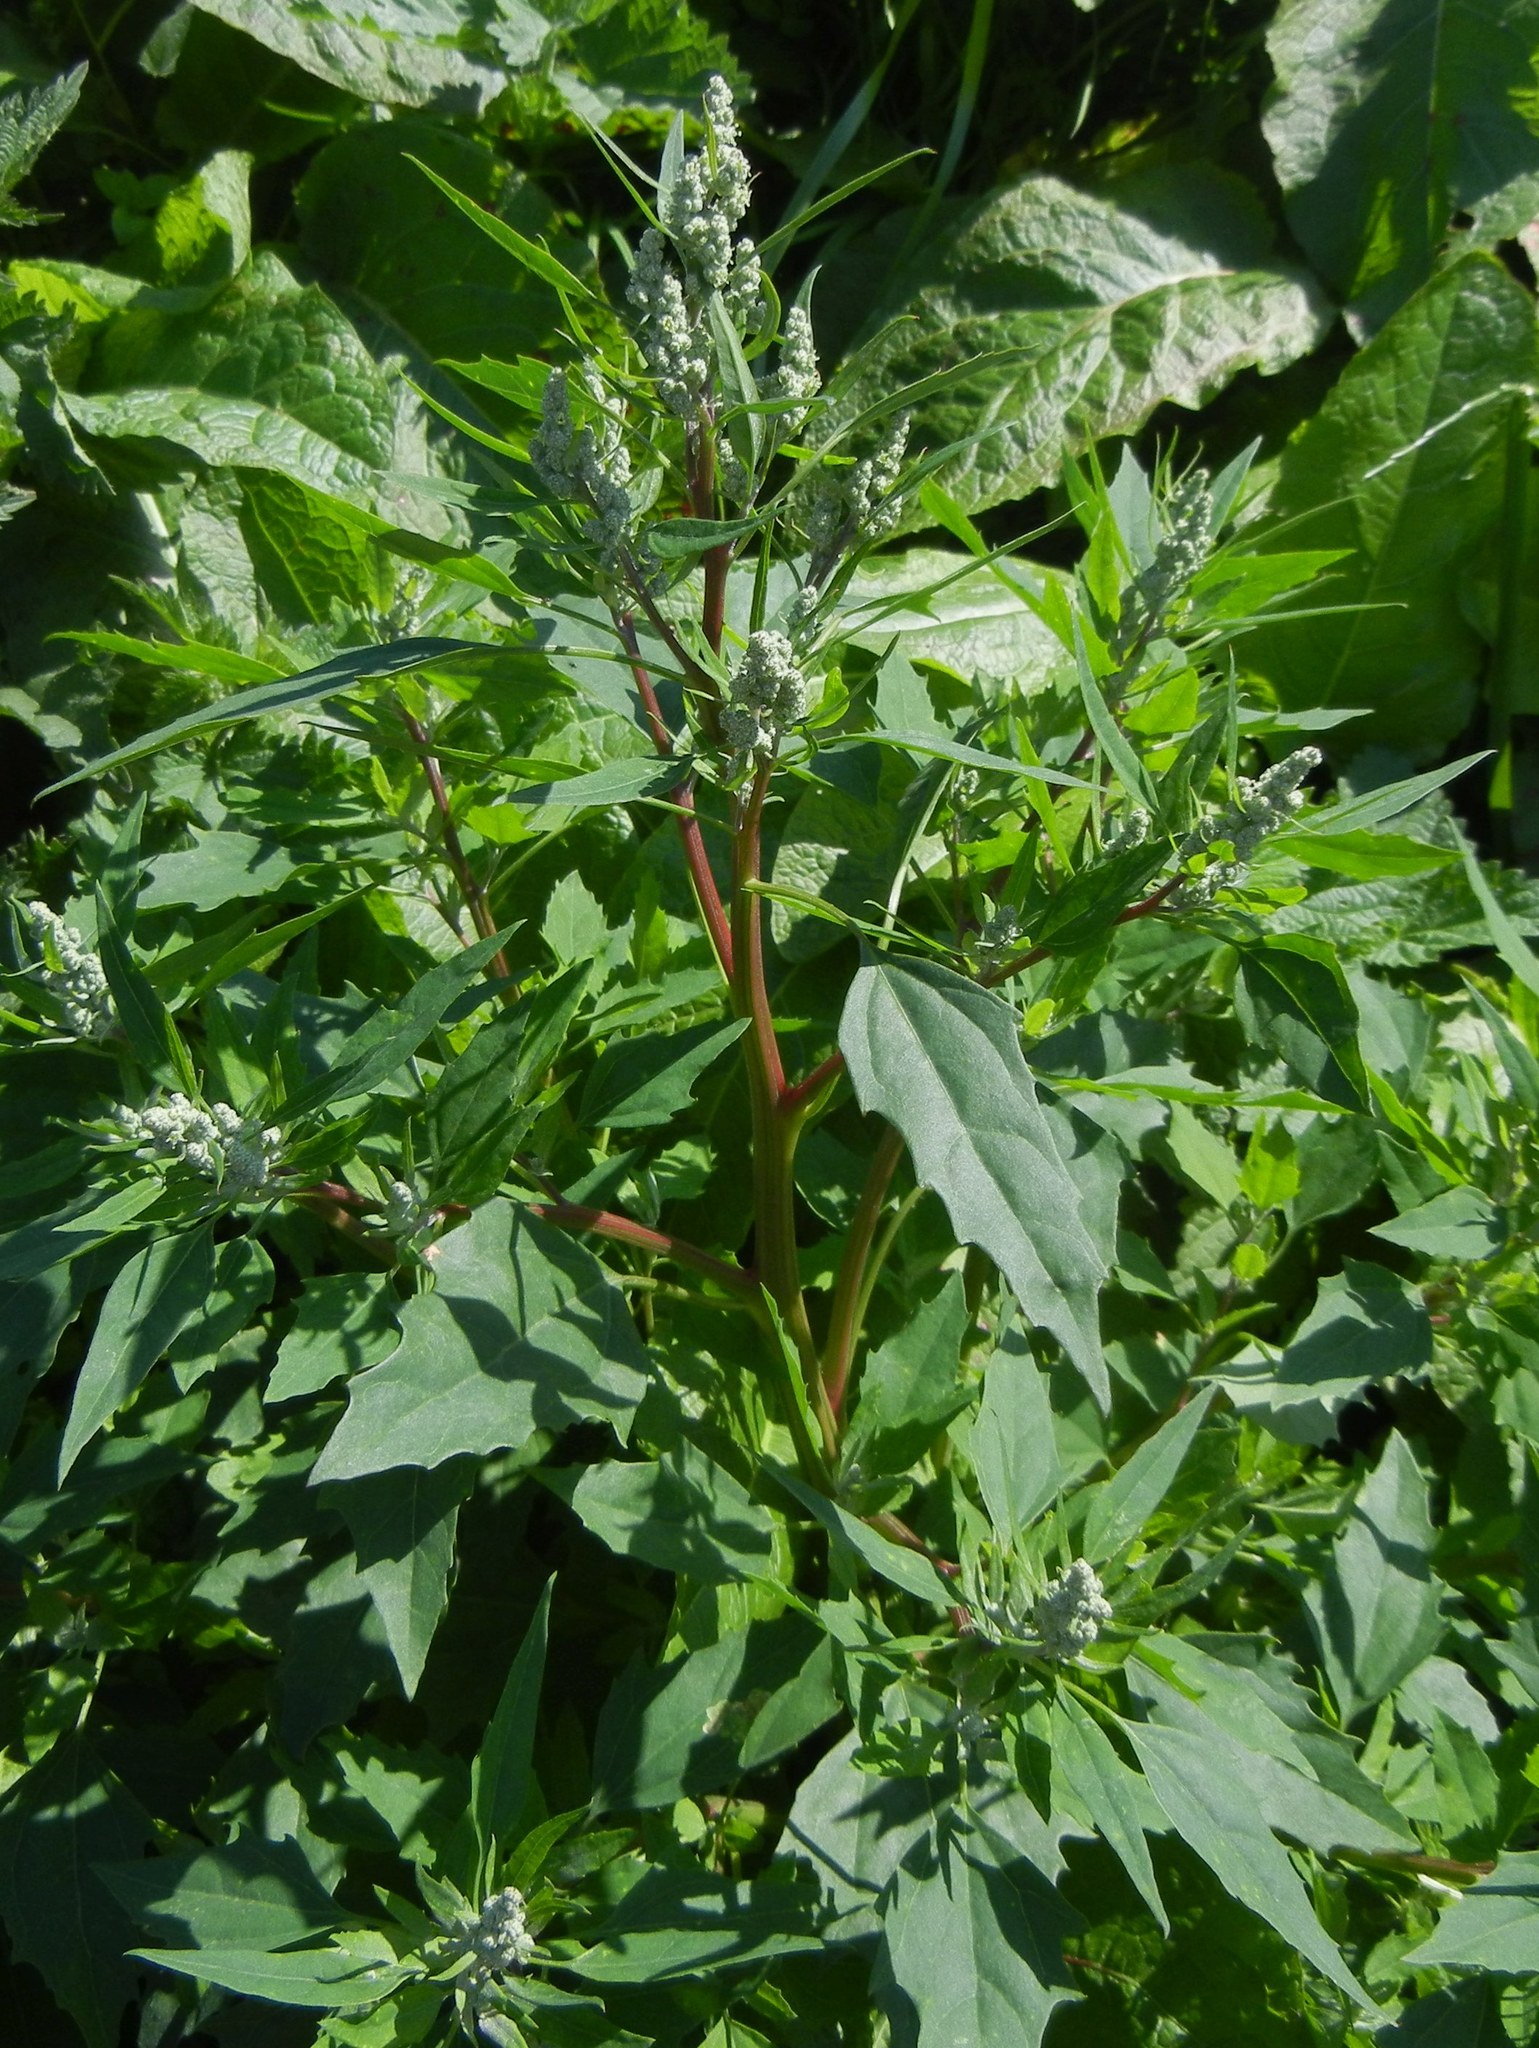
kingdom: Plantae
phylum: Tracheophyta
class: Magnoliopsida
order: Caryophyllales
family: Amaranthaceae
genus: Chenopodium
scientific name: Chenopodium album
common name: Fat-hen
